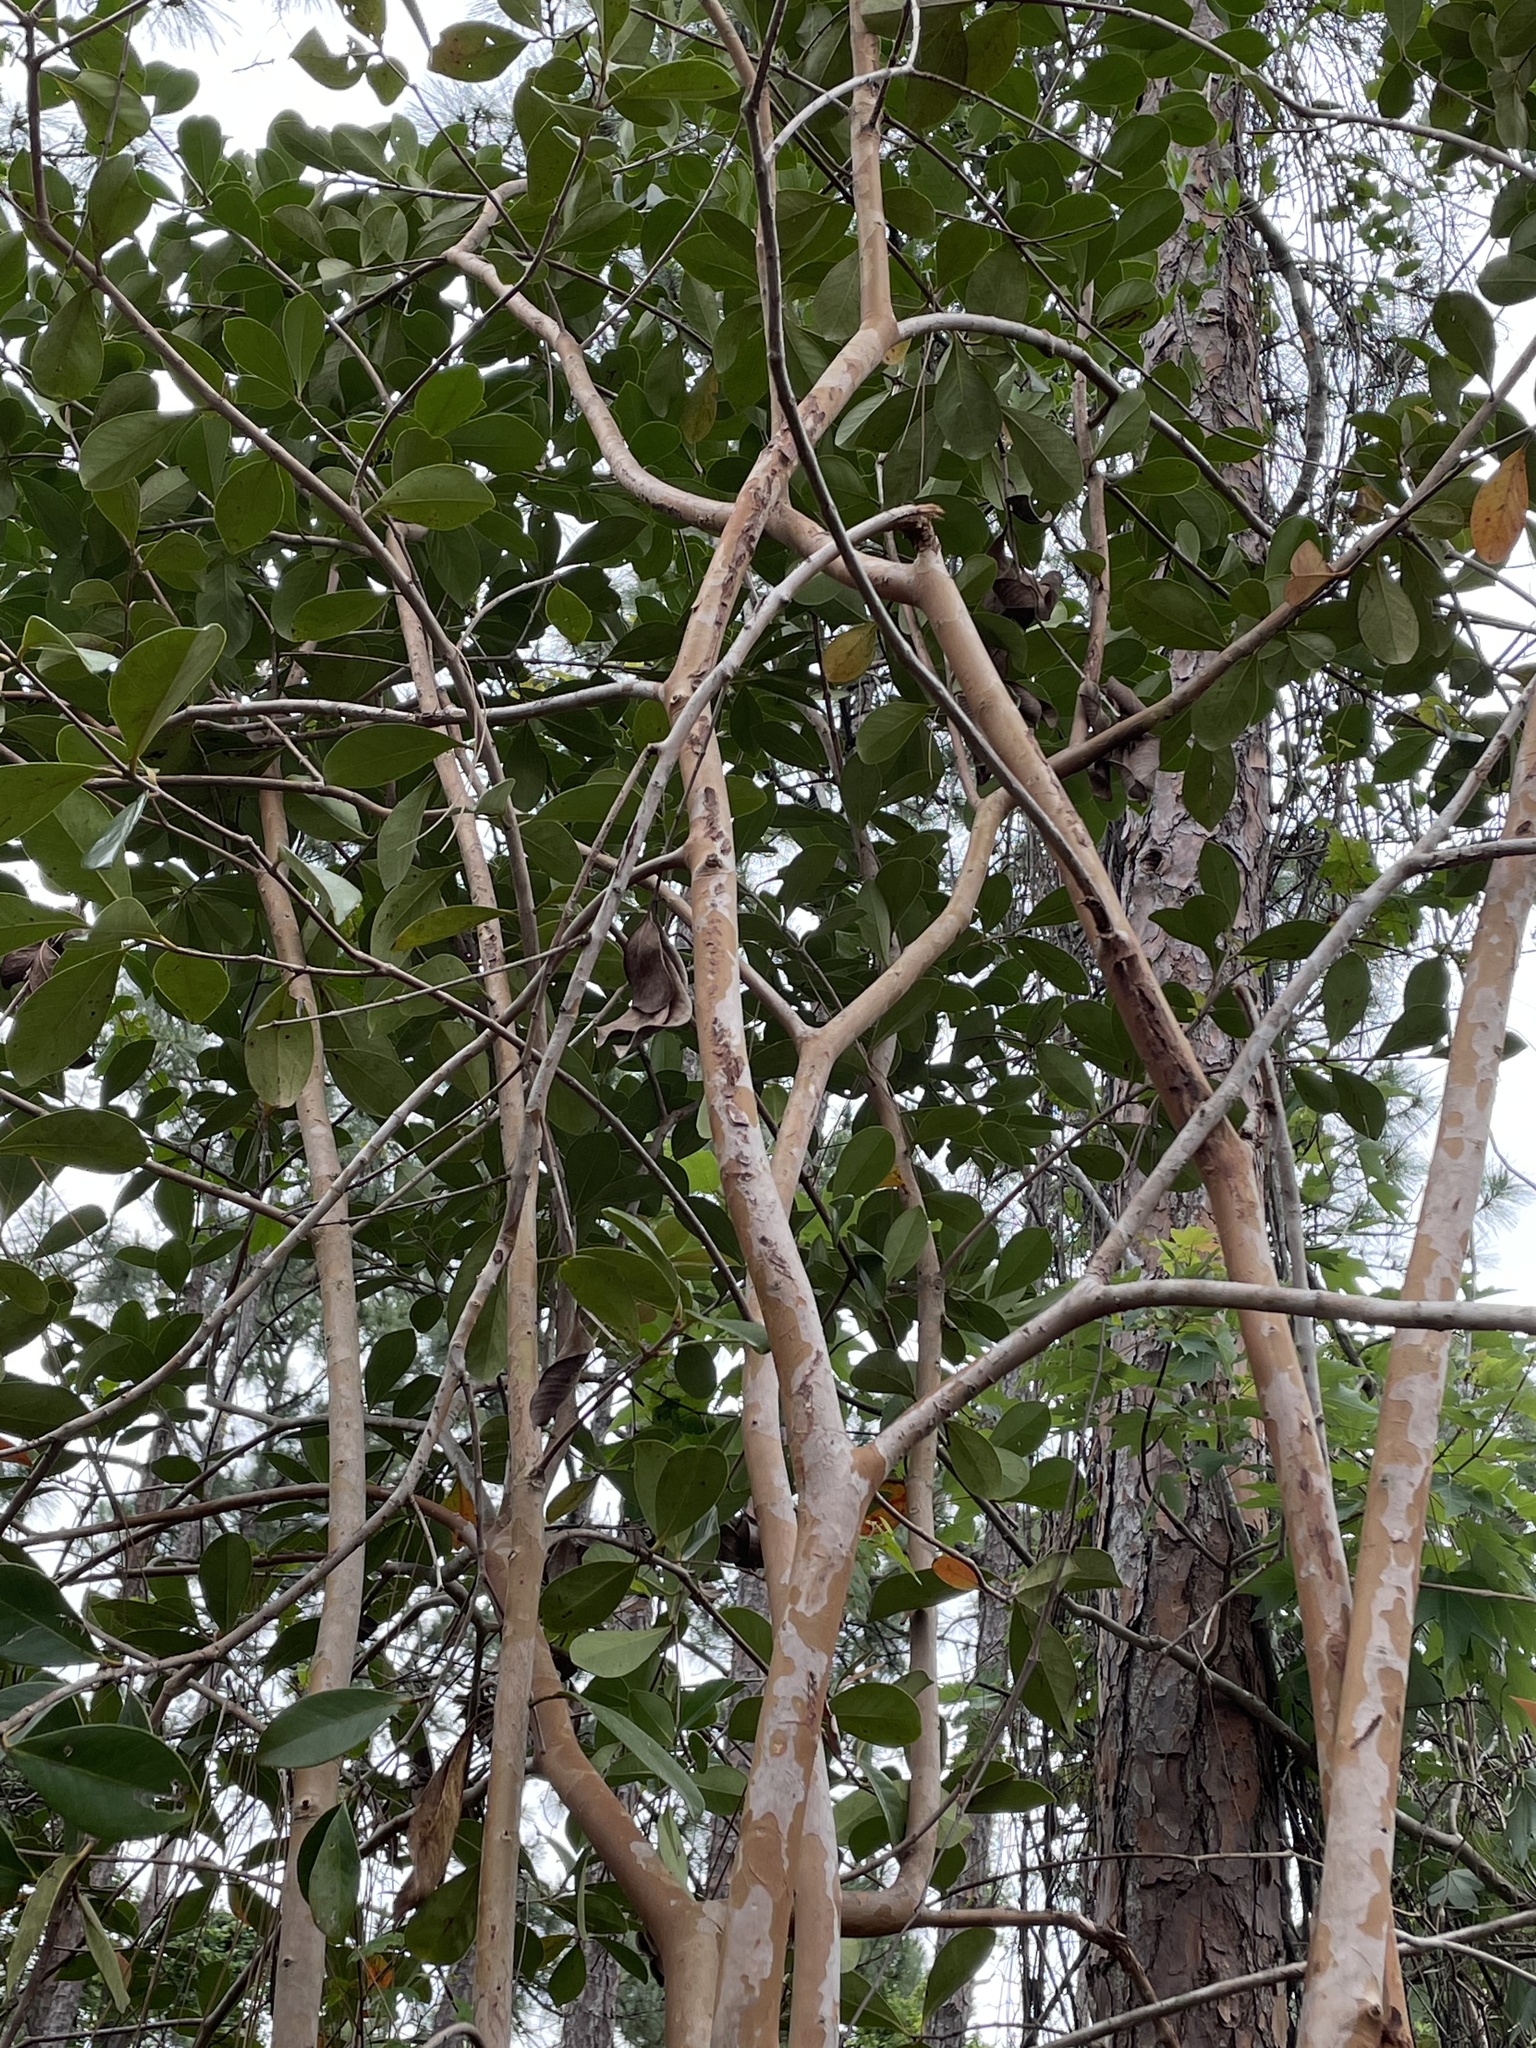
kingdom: Plantae
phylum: Tracheophyta
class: Magnoliopsida
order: Myrtales
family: Myrtaceae
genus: Psidium
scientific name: Psidium cattleianum
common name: Strawberry guava
